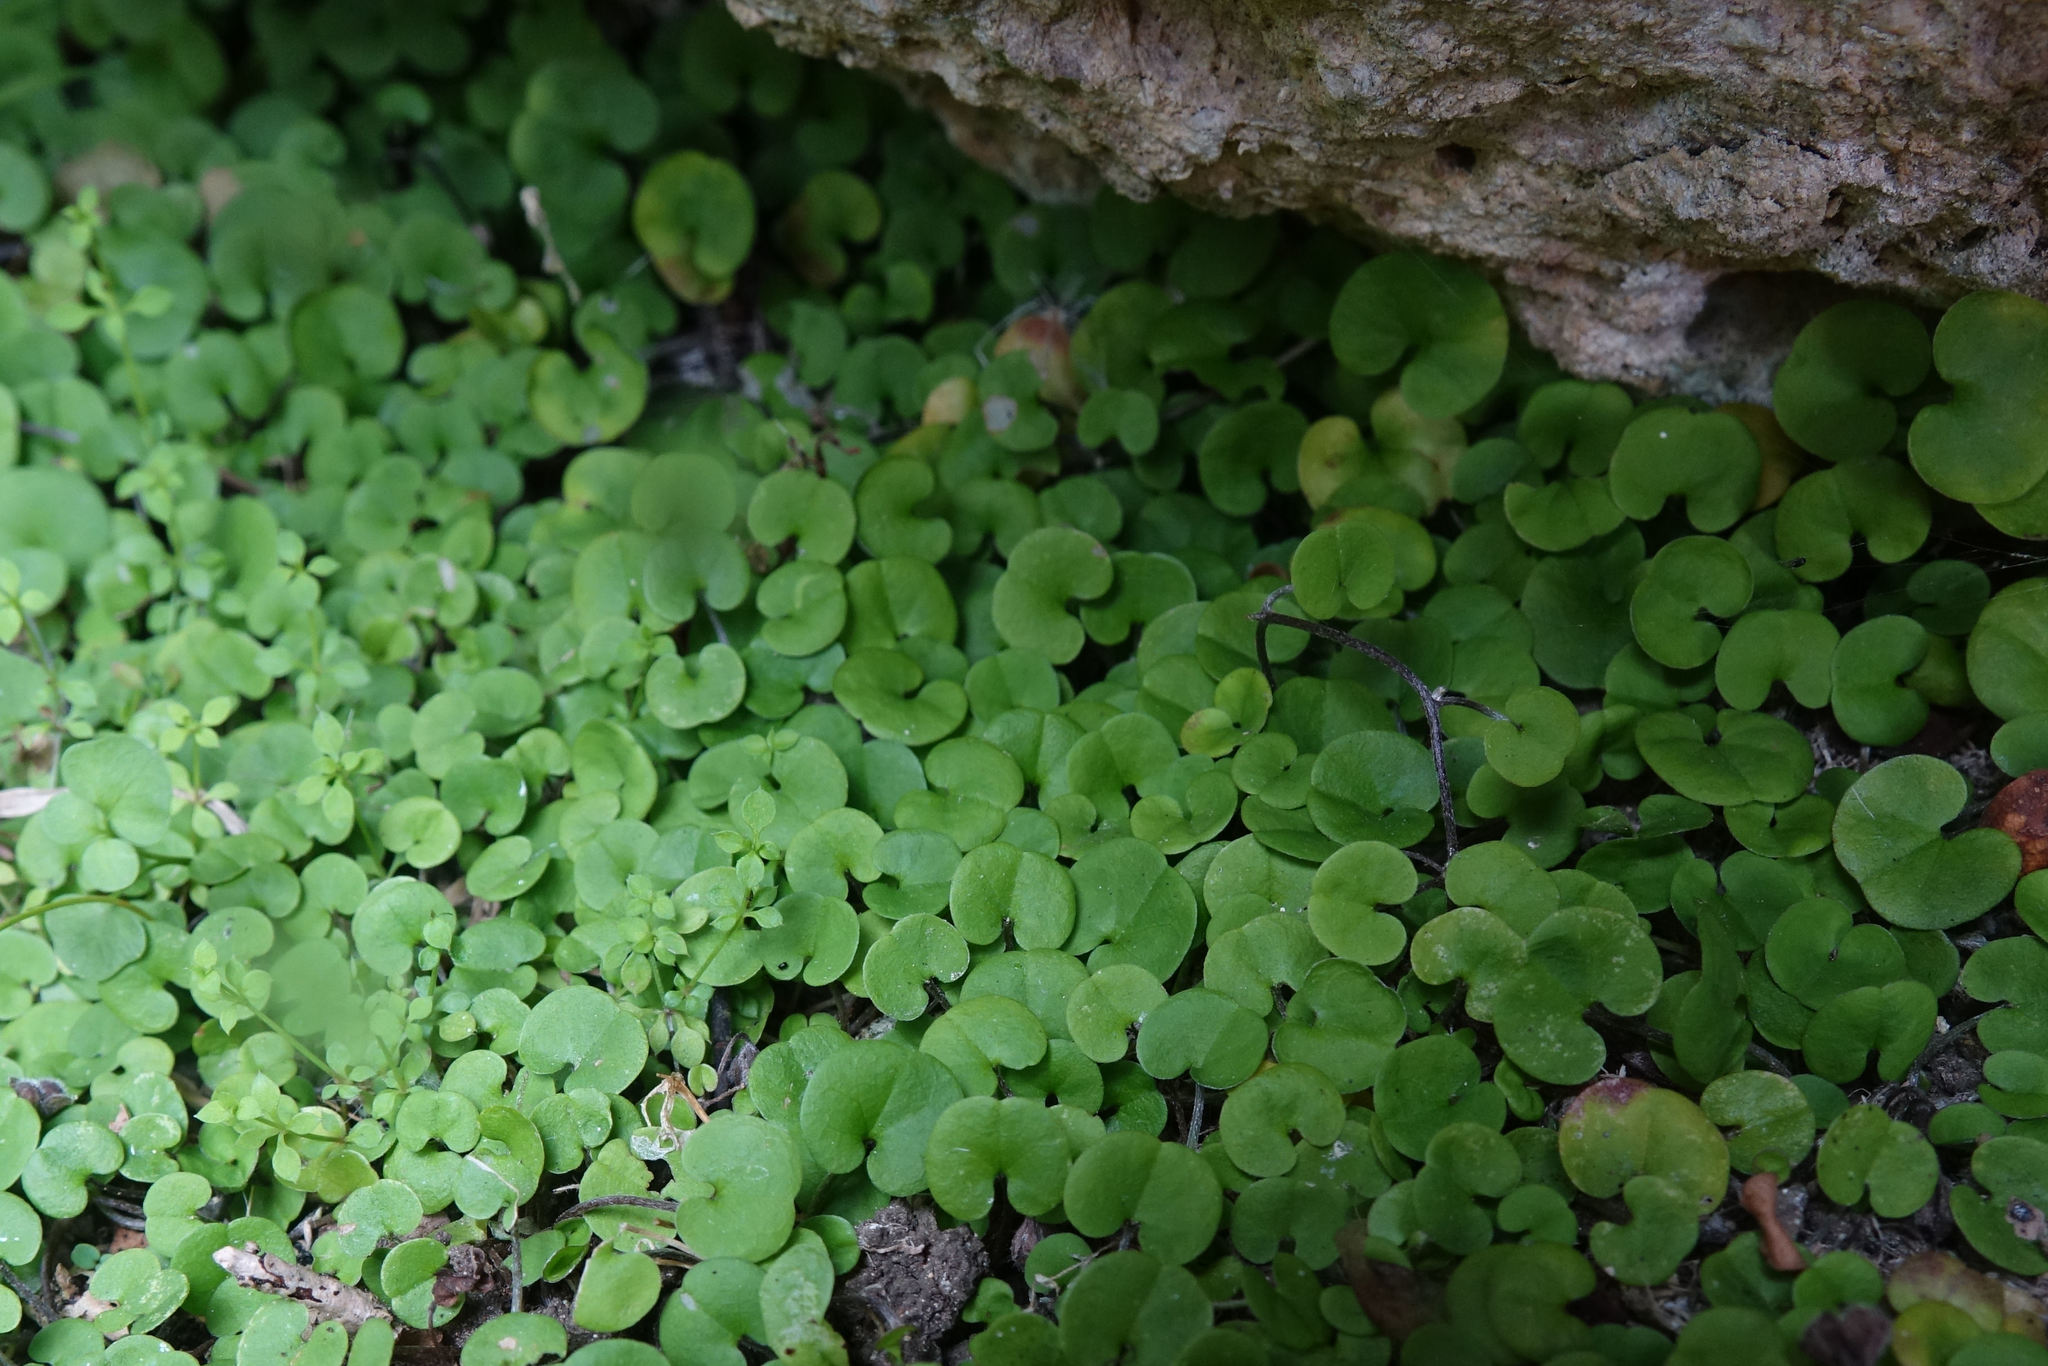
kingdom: Plantae
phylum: Tracheophyta
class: Magnoliopsida
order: Solanales
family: Convolvulaceae
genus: Dichondra
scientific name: Dichondra brevifolia
